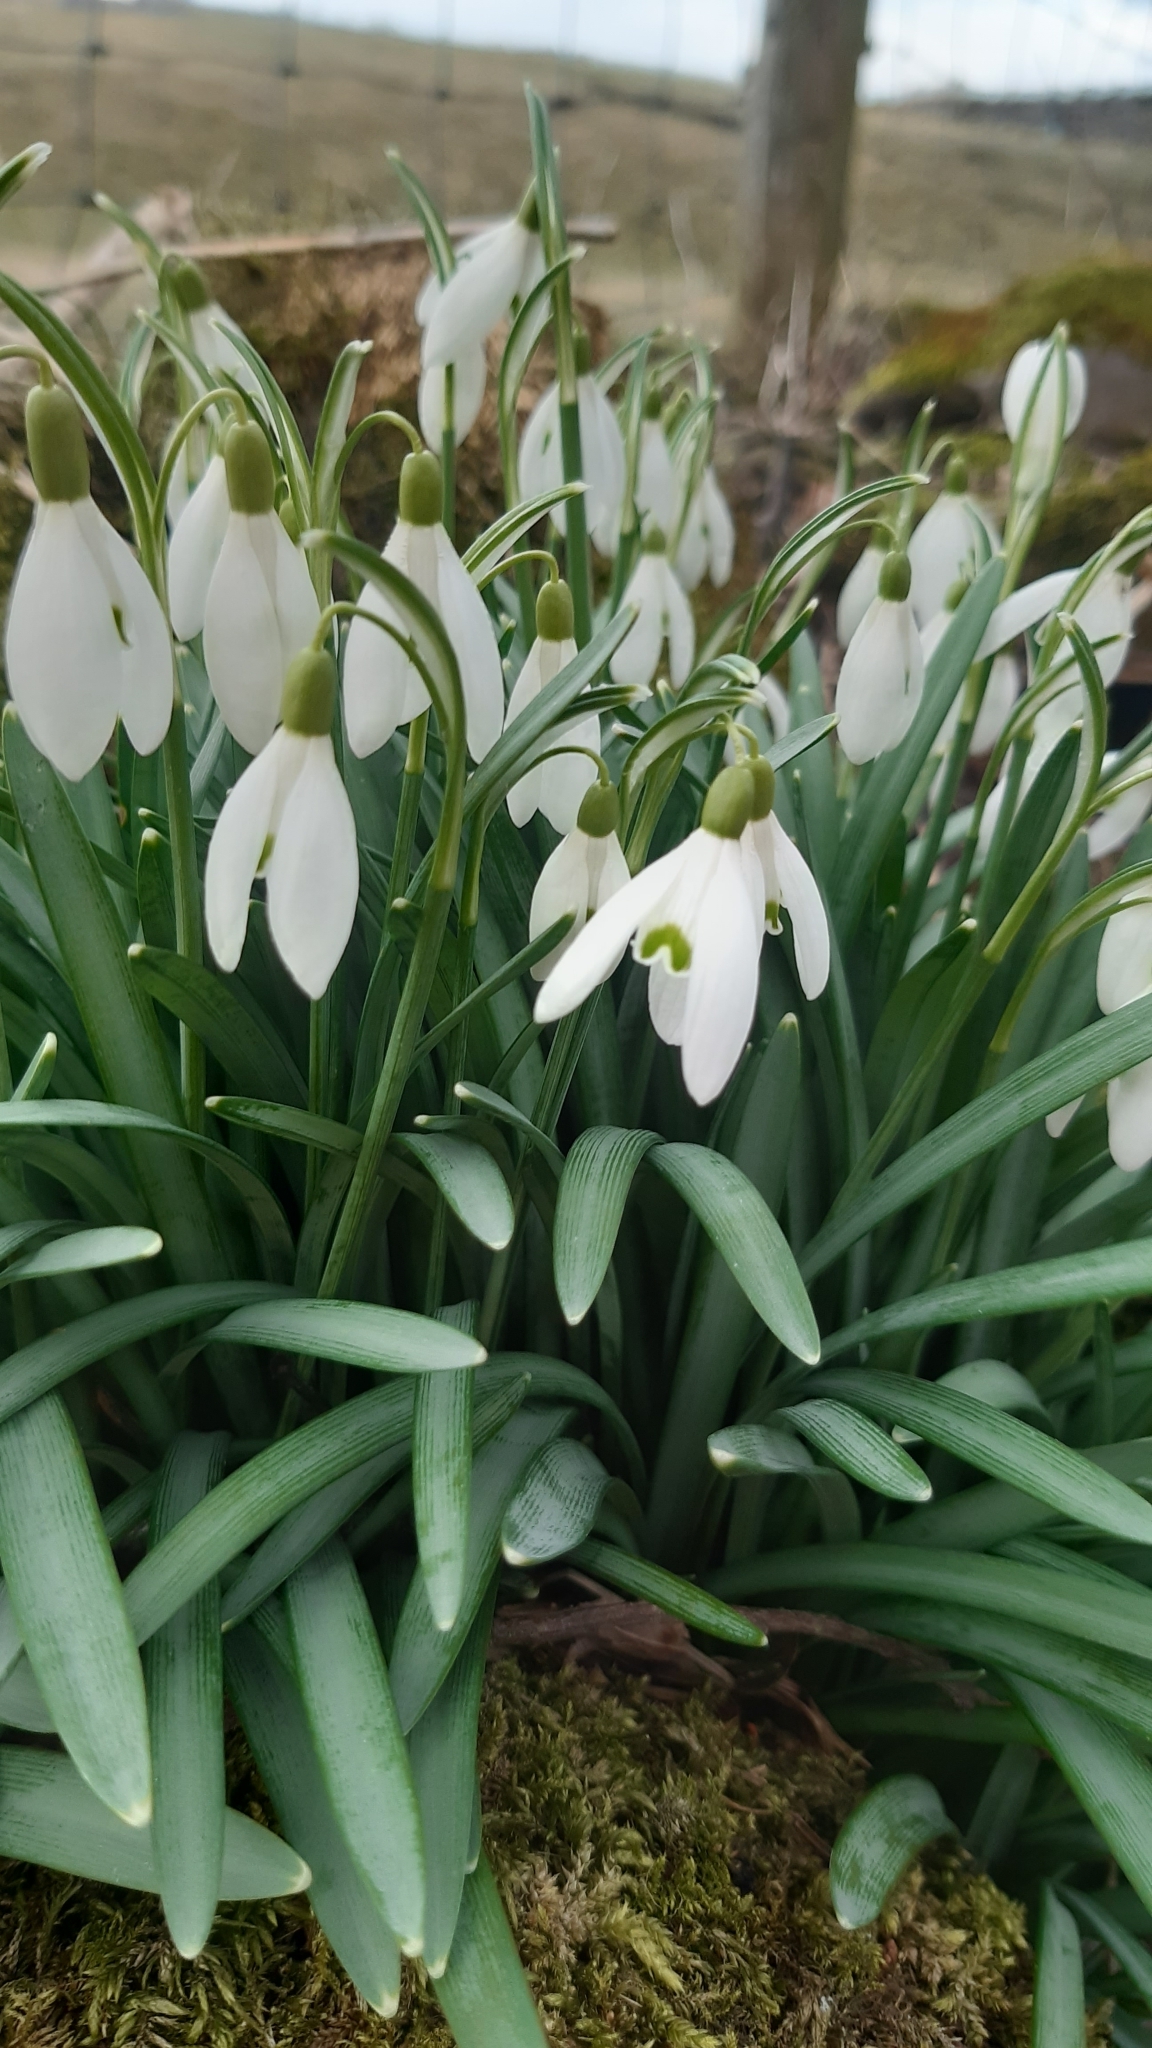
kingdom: Plantae
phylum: Tracheophyta
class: Liliopsida
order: Asparagales
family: Amaryllidaceae
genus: Galanthus
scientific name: Galanthus nivalis
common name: Snowdrop
